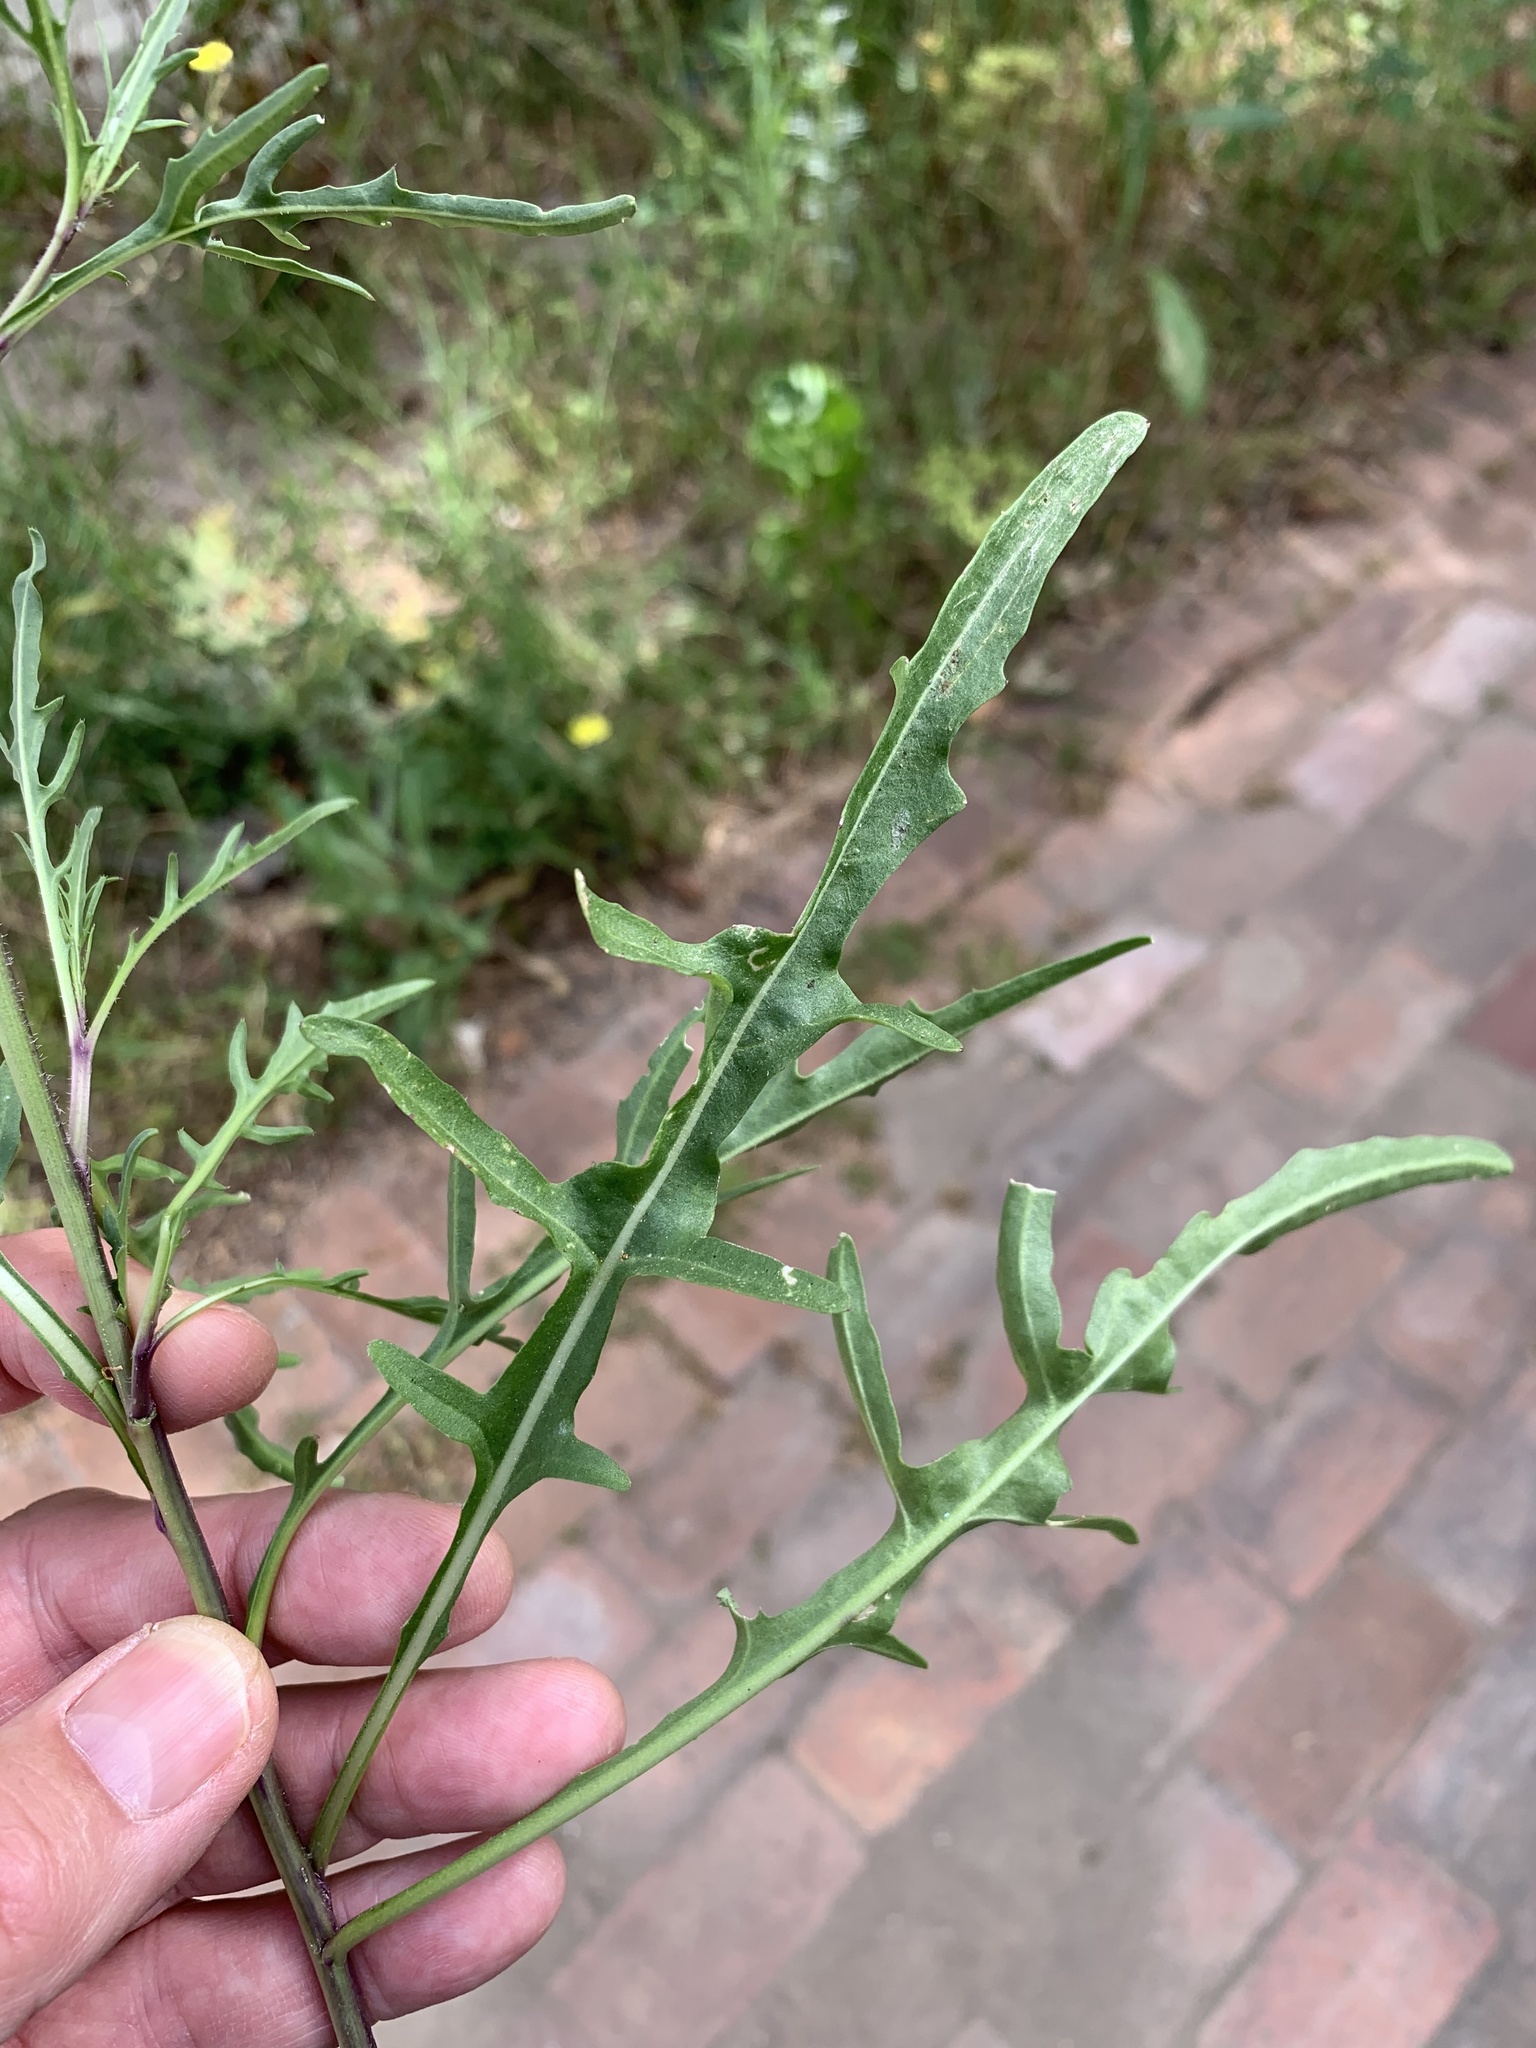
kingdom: Plantae
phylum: Tracheophyta
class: Magnoliopsida
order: Brassicales
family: Brassicaceae
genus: Diplotaxis
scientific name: Diplotaxis tenuifolia
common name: Perennial wall-rocket
